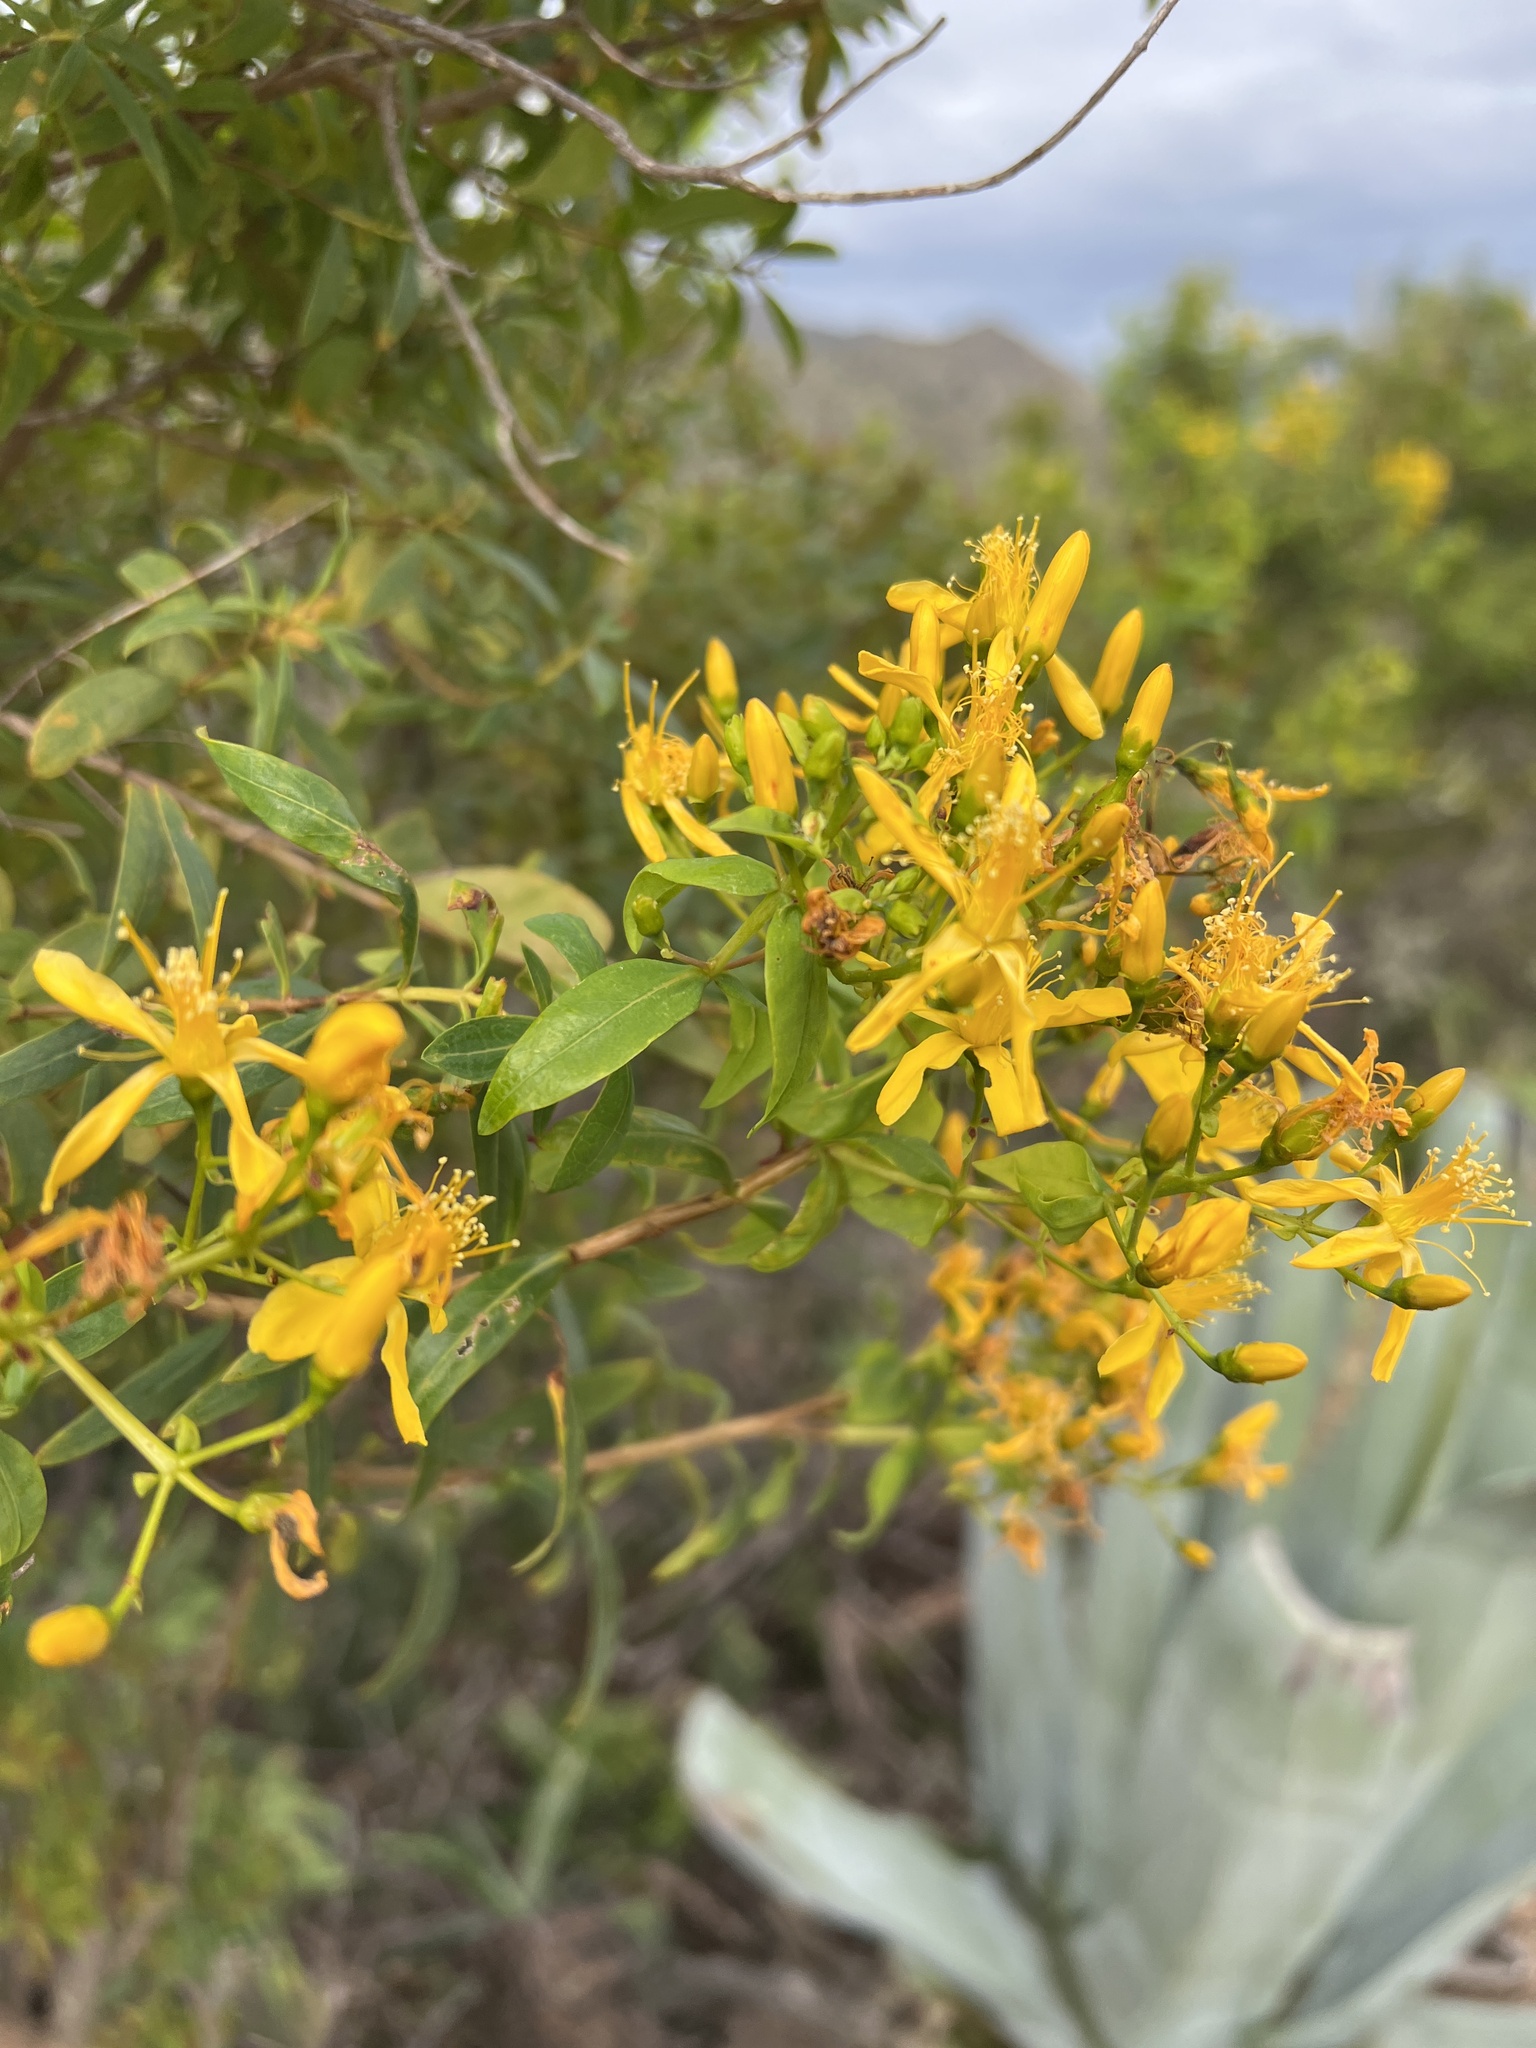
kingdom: Plantae
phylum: Tracheophyta
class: Magnoliopsida
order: Malpighiales
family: Hypericaceae
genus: Hypericum
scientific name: Hypericum canariense
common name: Canary island st. johnswort
